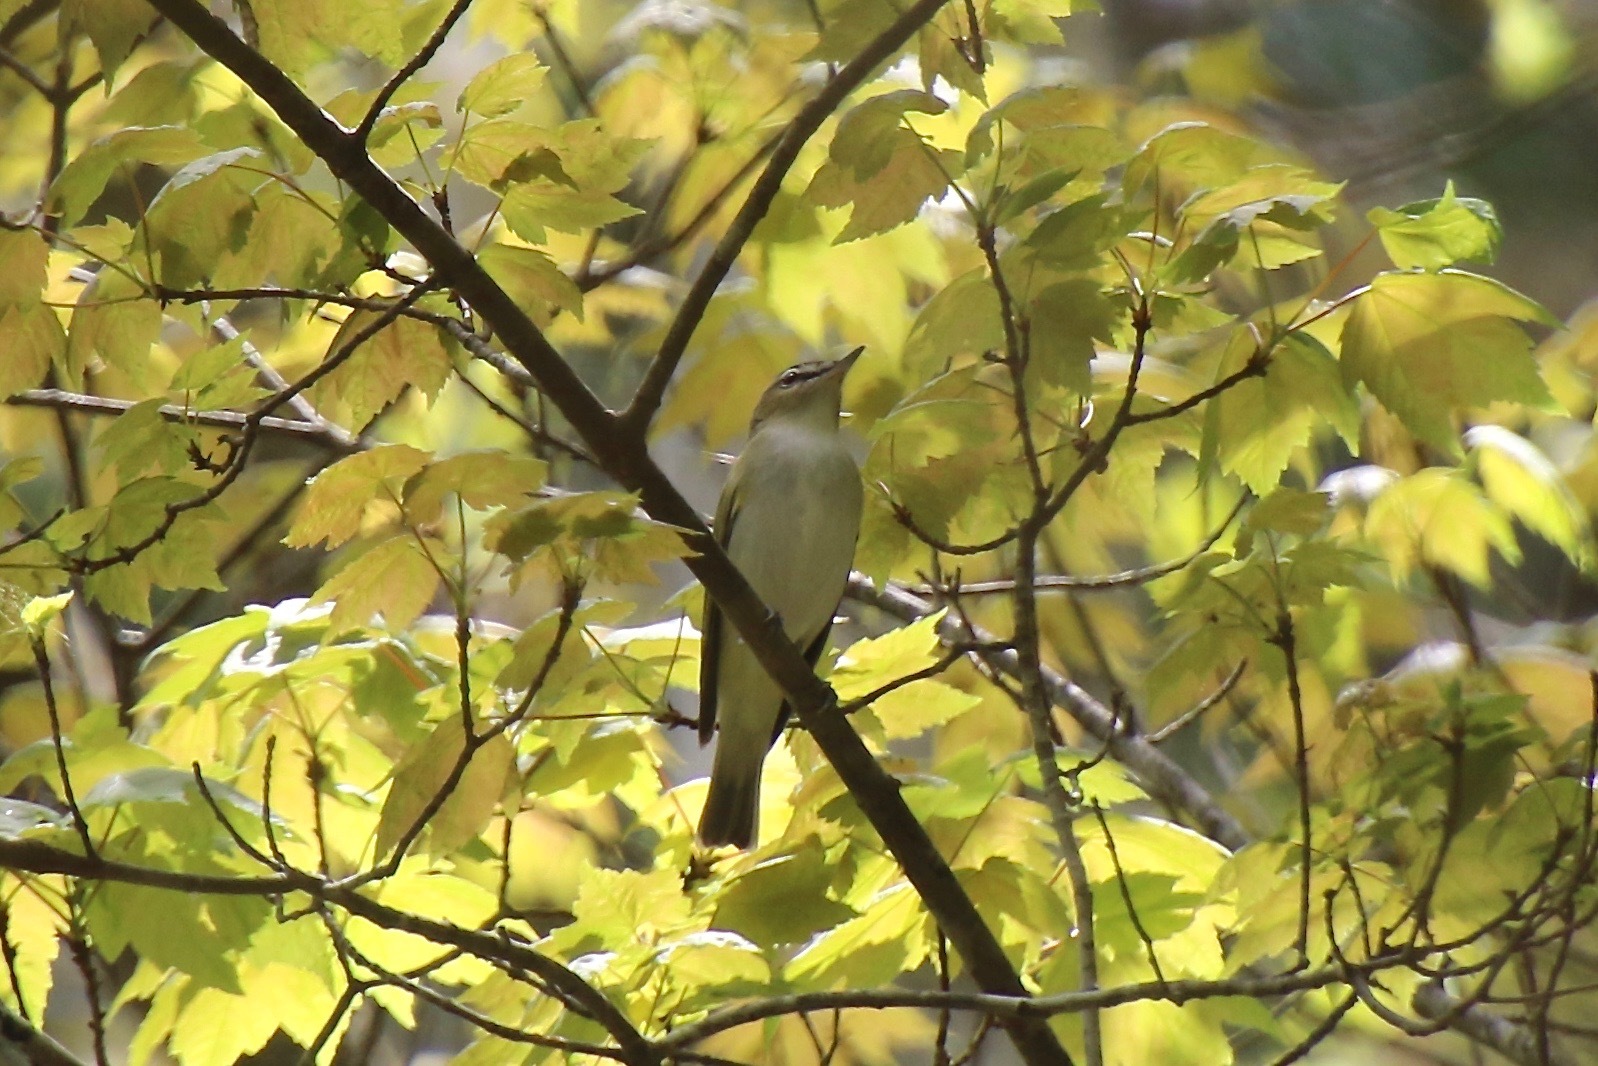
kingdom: Animalia
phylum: Chordata
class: Aves
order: Passeriformes
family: Vireonidae
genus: Vireo
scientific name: Vireo olivaceus
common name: Red-eyed vireo
